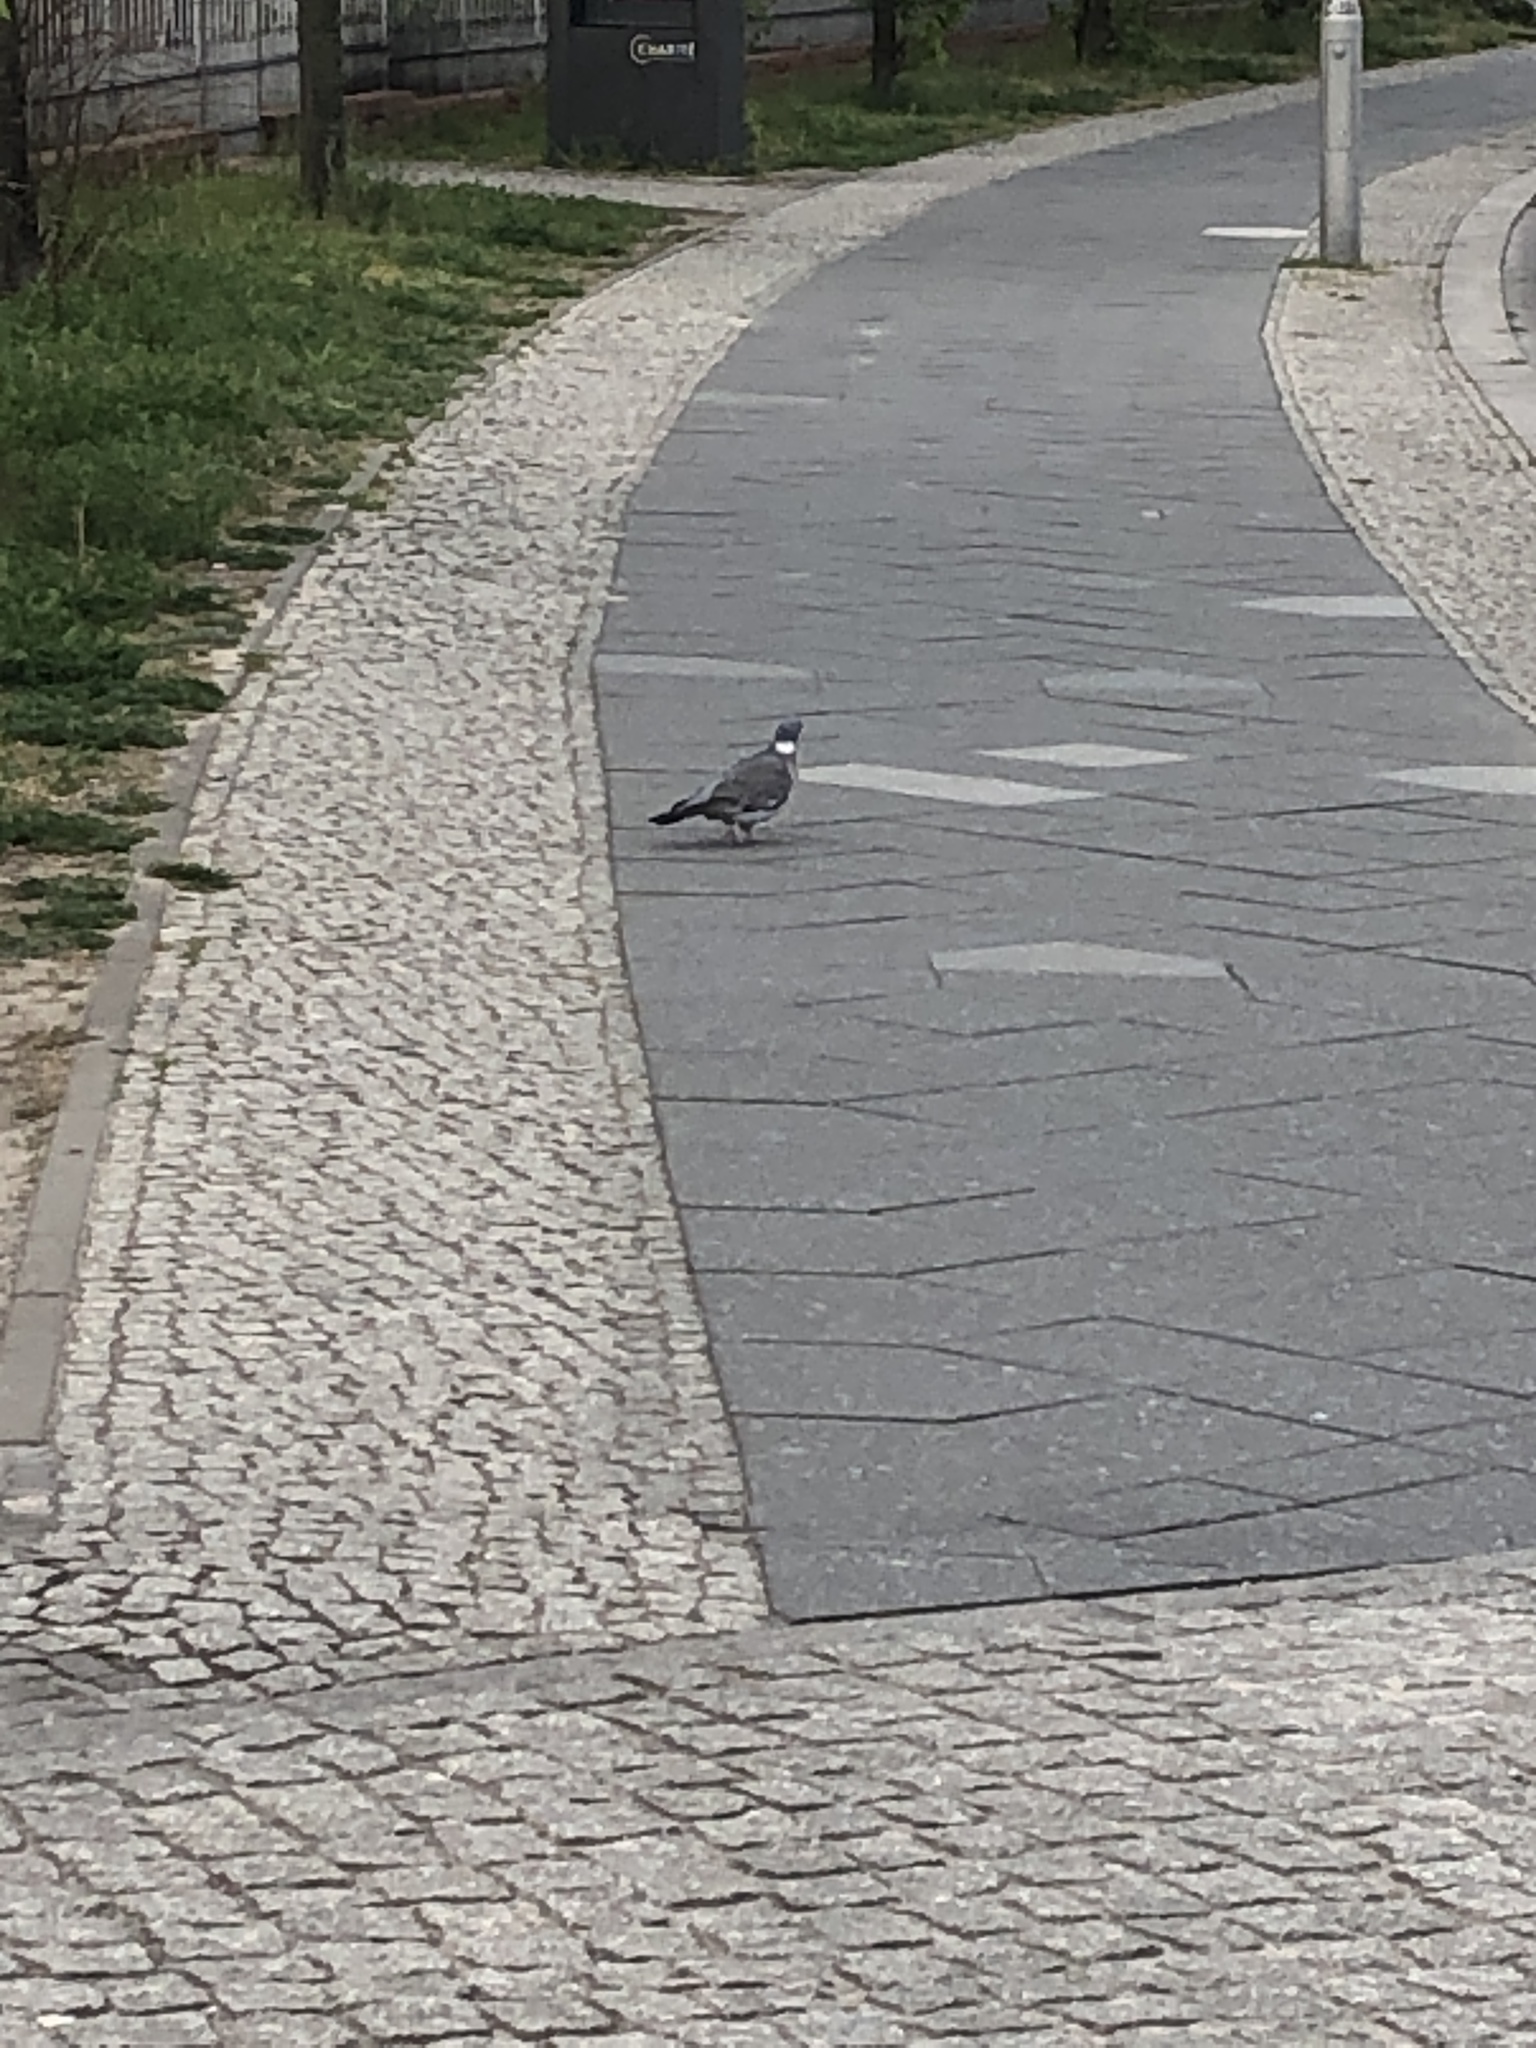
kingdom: Animalia
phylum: Chordata
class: Aves
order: Columbiformes
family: Columbidae
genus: Columba
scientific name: Columba palumbus
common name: Common wood pigeon
